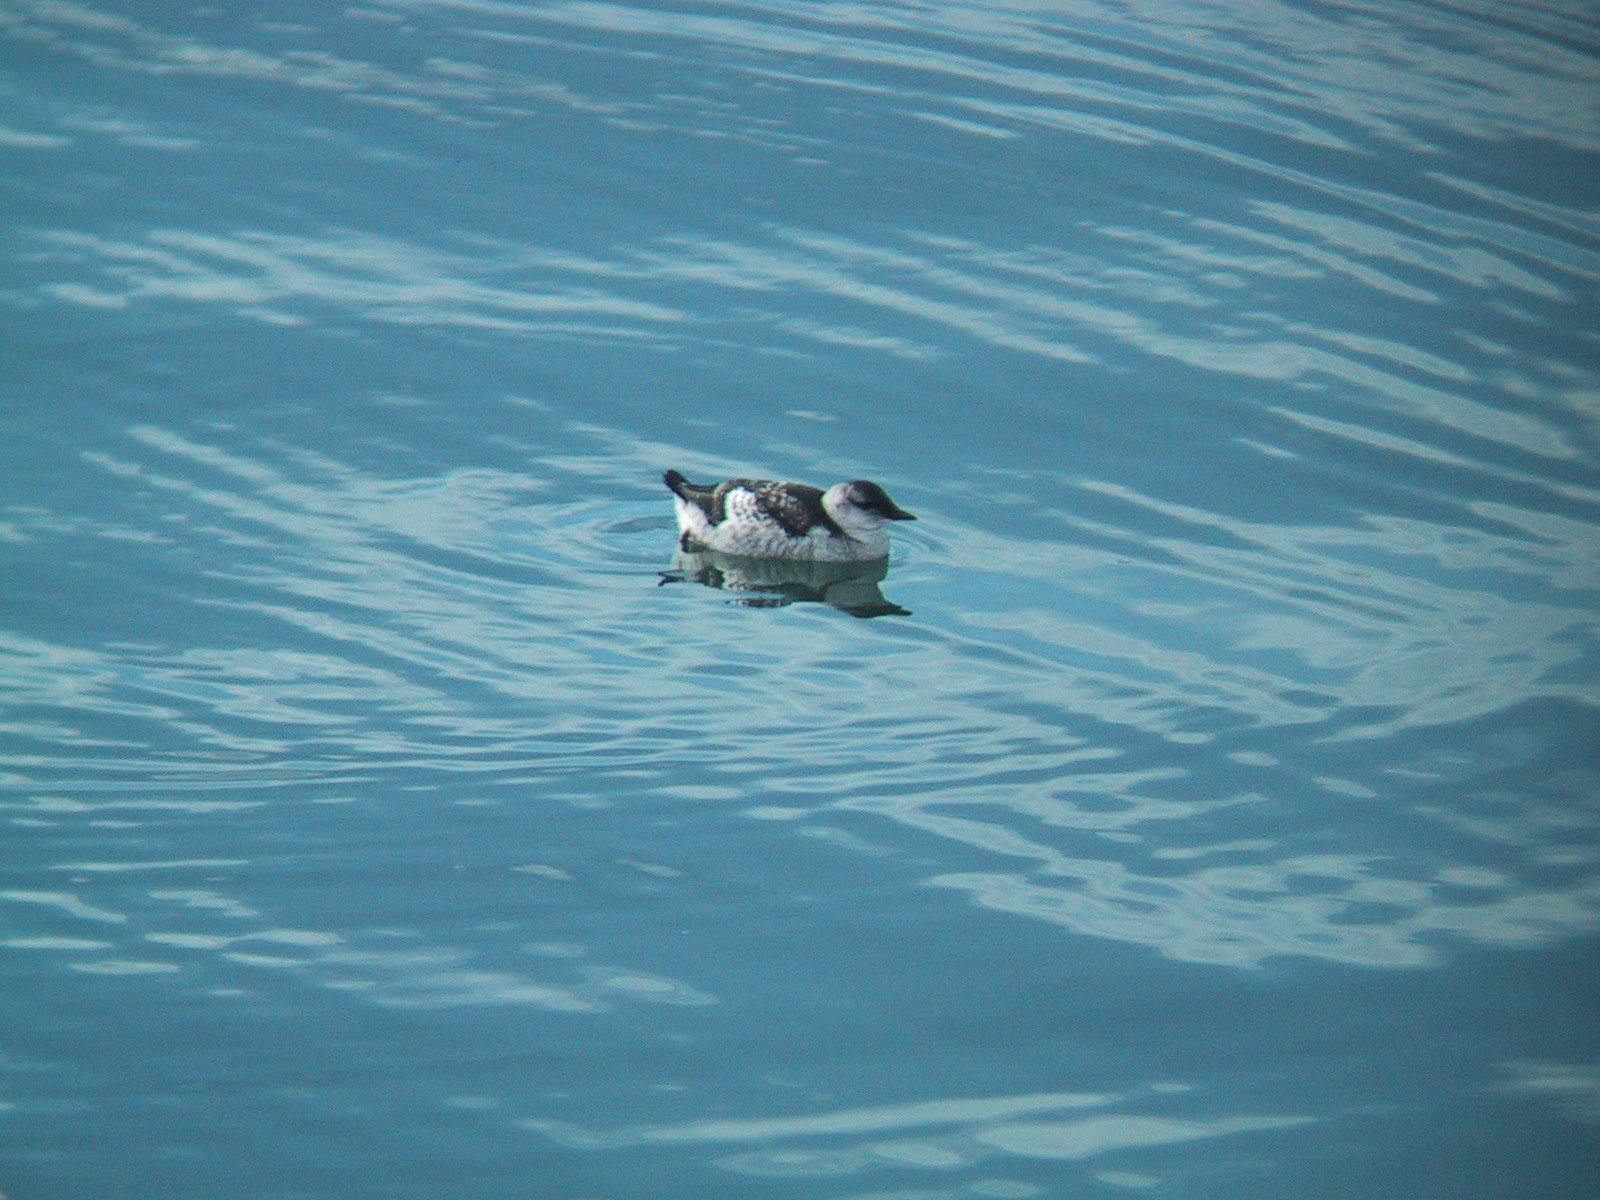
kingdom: Animalia
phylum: Chordata
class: Aves
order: Charadriiformes
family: Alcidae
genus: Cepphus
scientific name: Cepphus grylle
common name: Black guillemot
